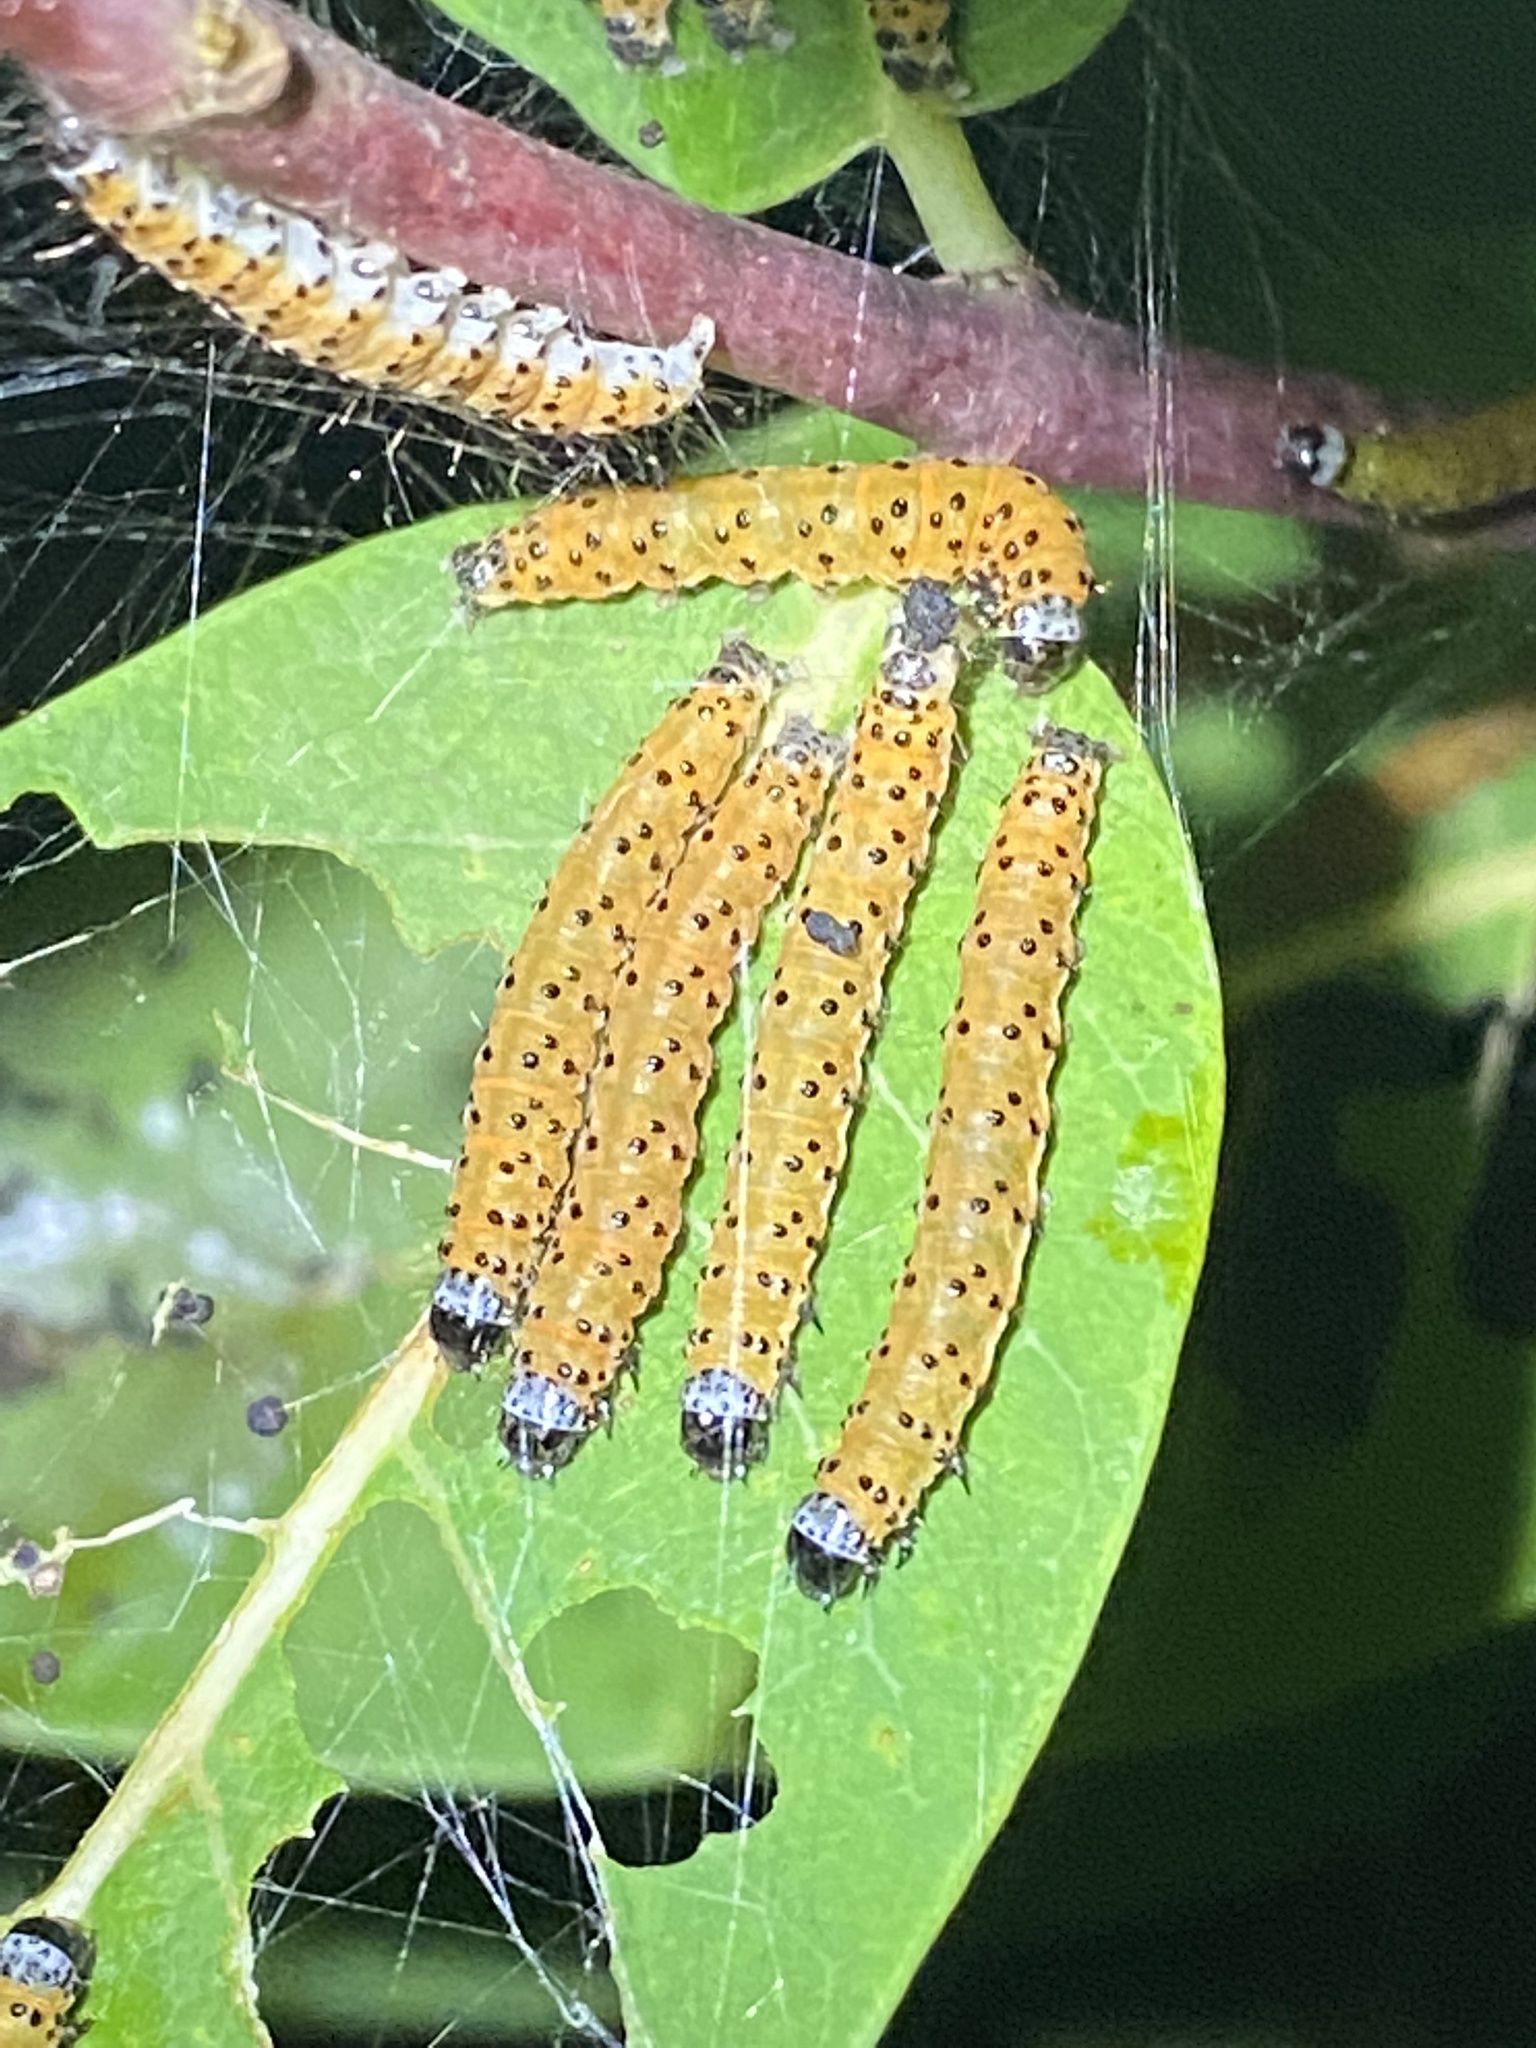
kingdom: Animalia
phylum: Arthropoda
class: Insecta
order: Lepidoptera
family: Crambidae
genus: Saucrobotys
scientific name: Saucrobotys futilalis
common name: Dogbane saucrobotys moth
